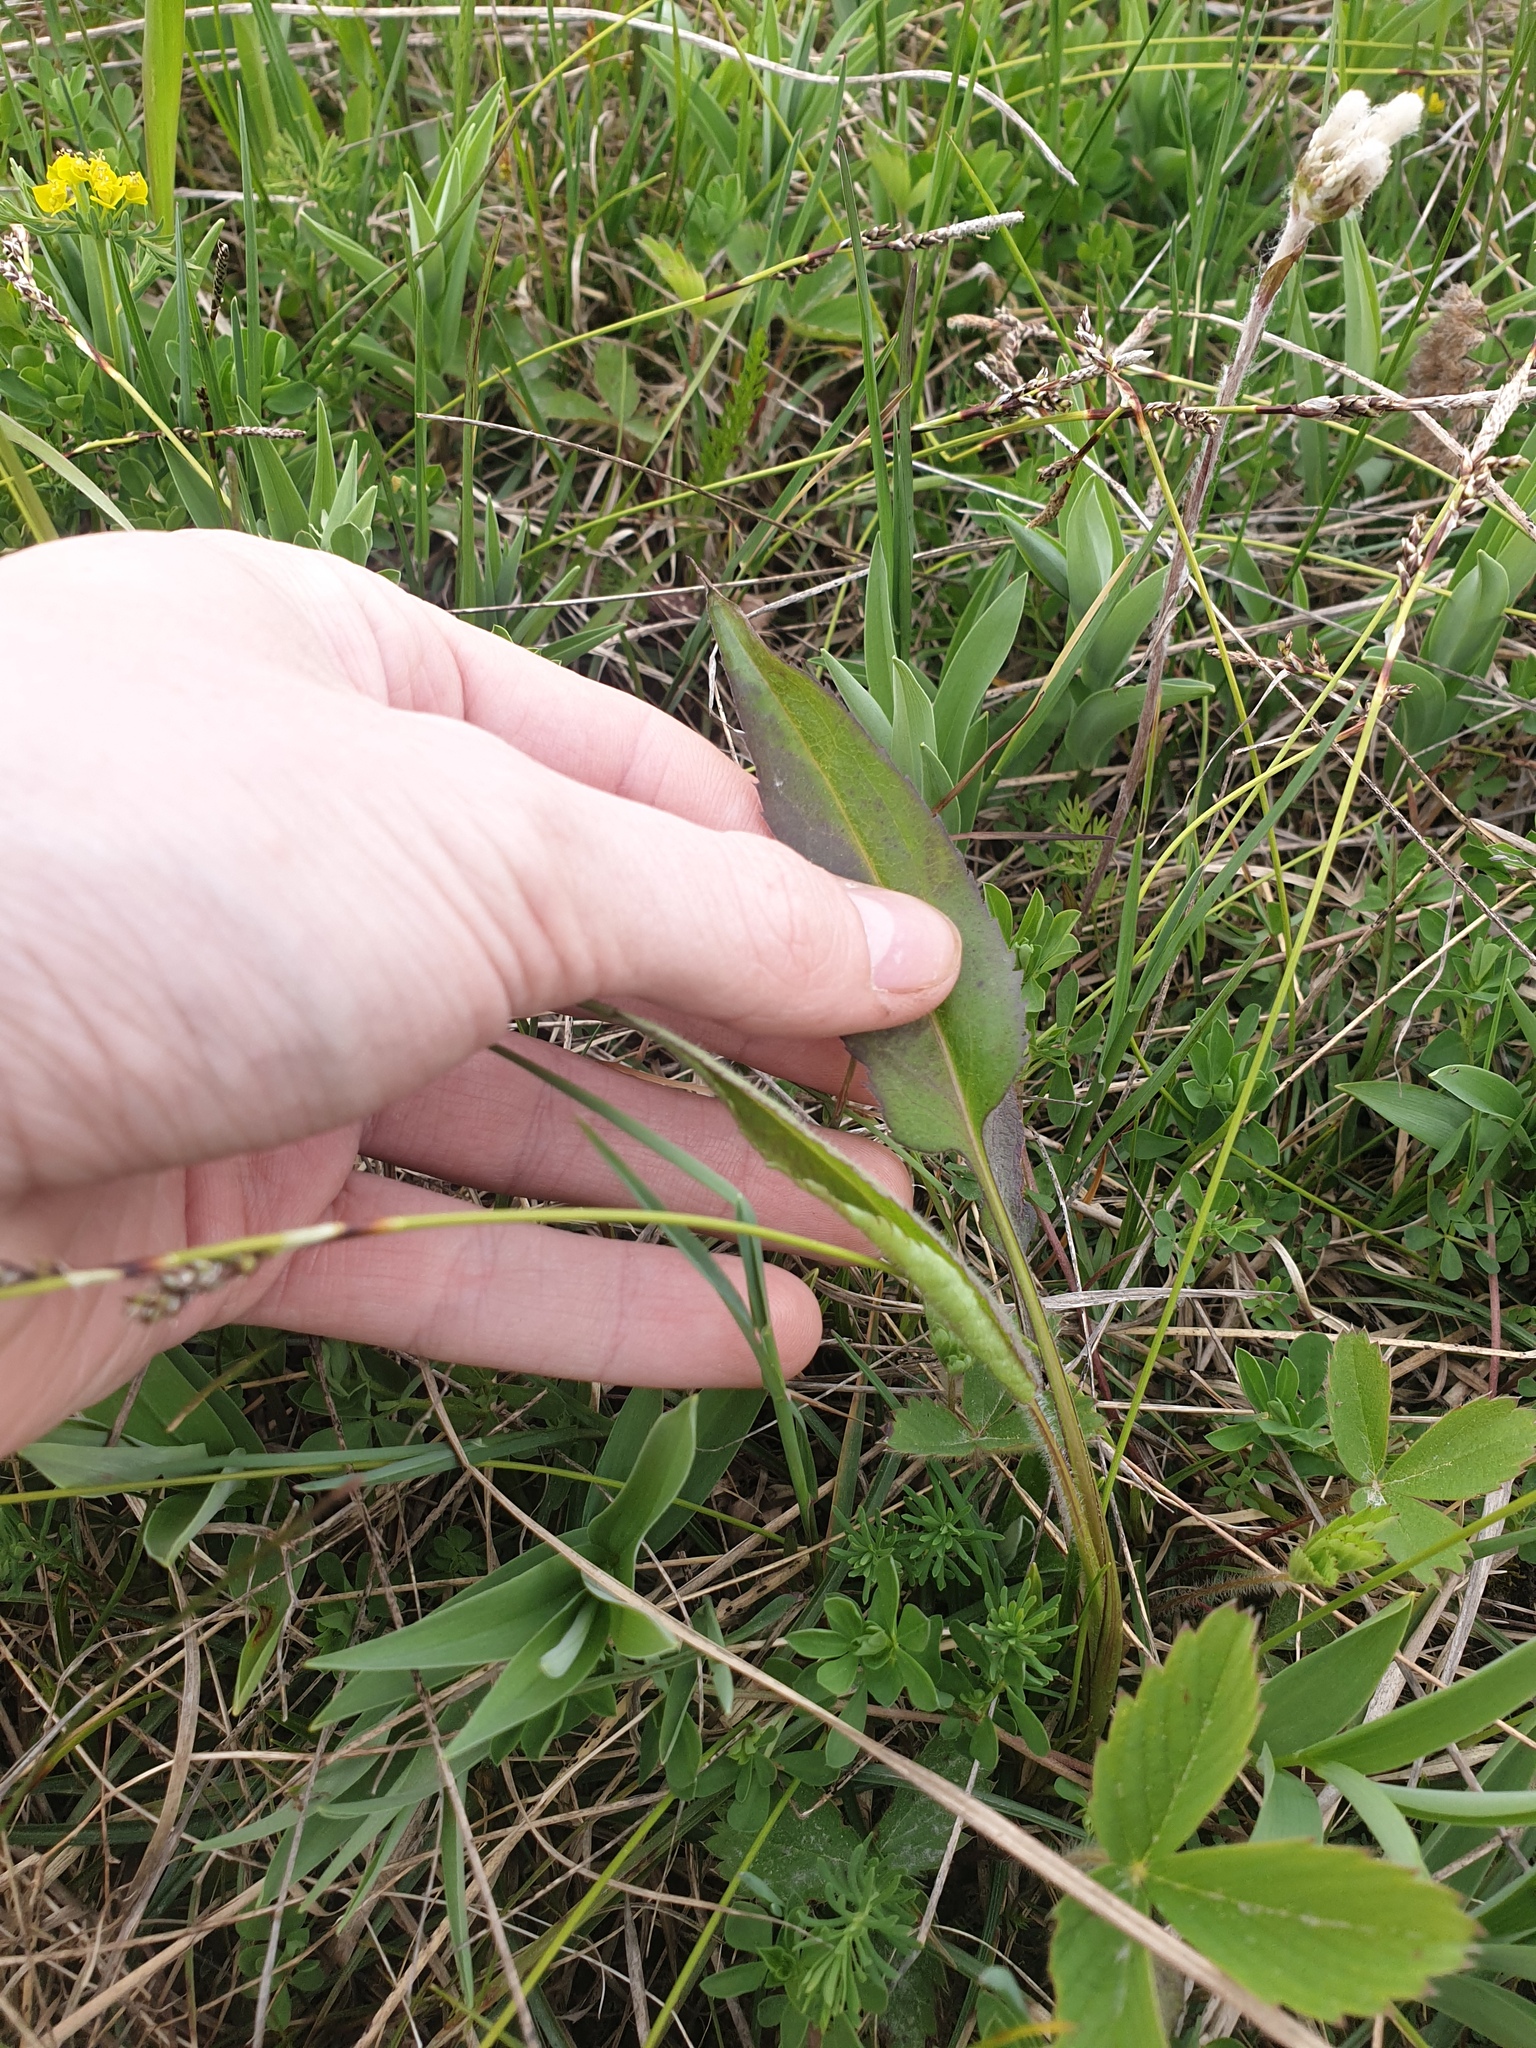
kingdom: Plantae
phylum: Tracheophyta
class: Magnoliopsida
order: Asterales
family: Asteraceae
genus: Symphyotrichum
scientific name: Symphyotrichum ciliolatum
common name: Fringed blue aster
